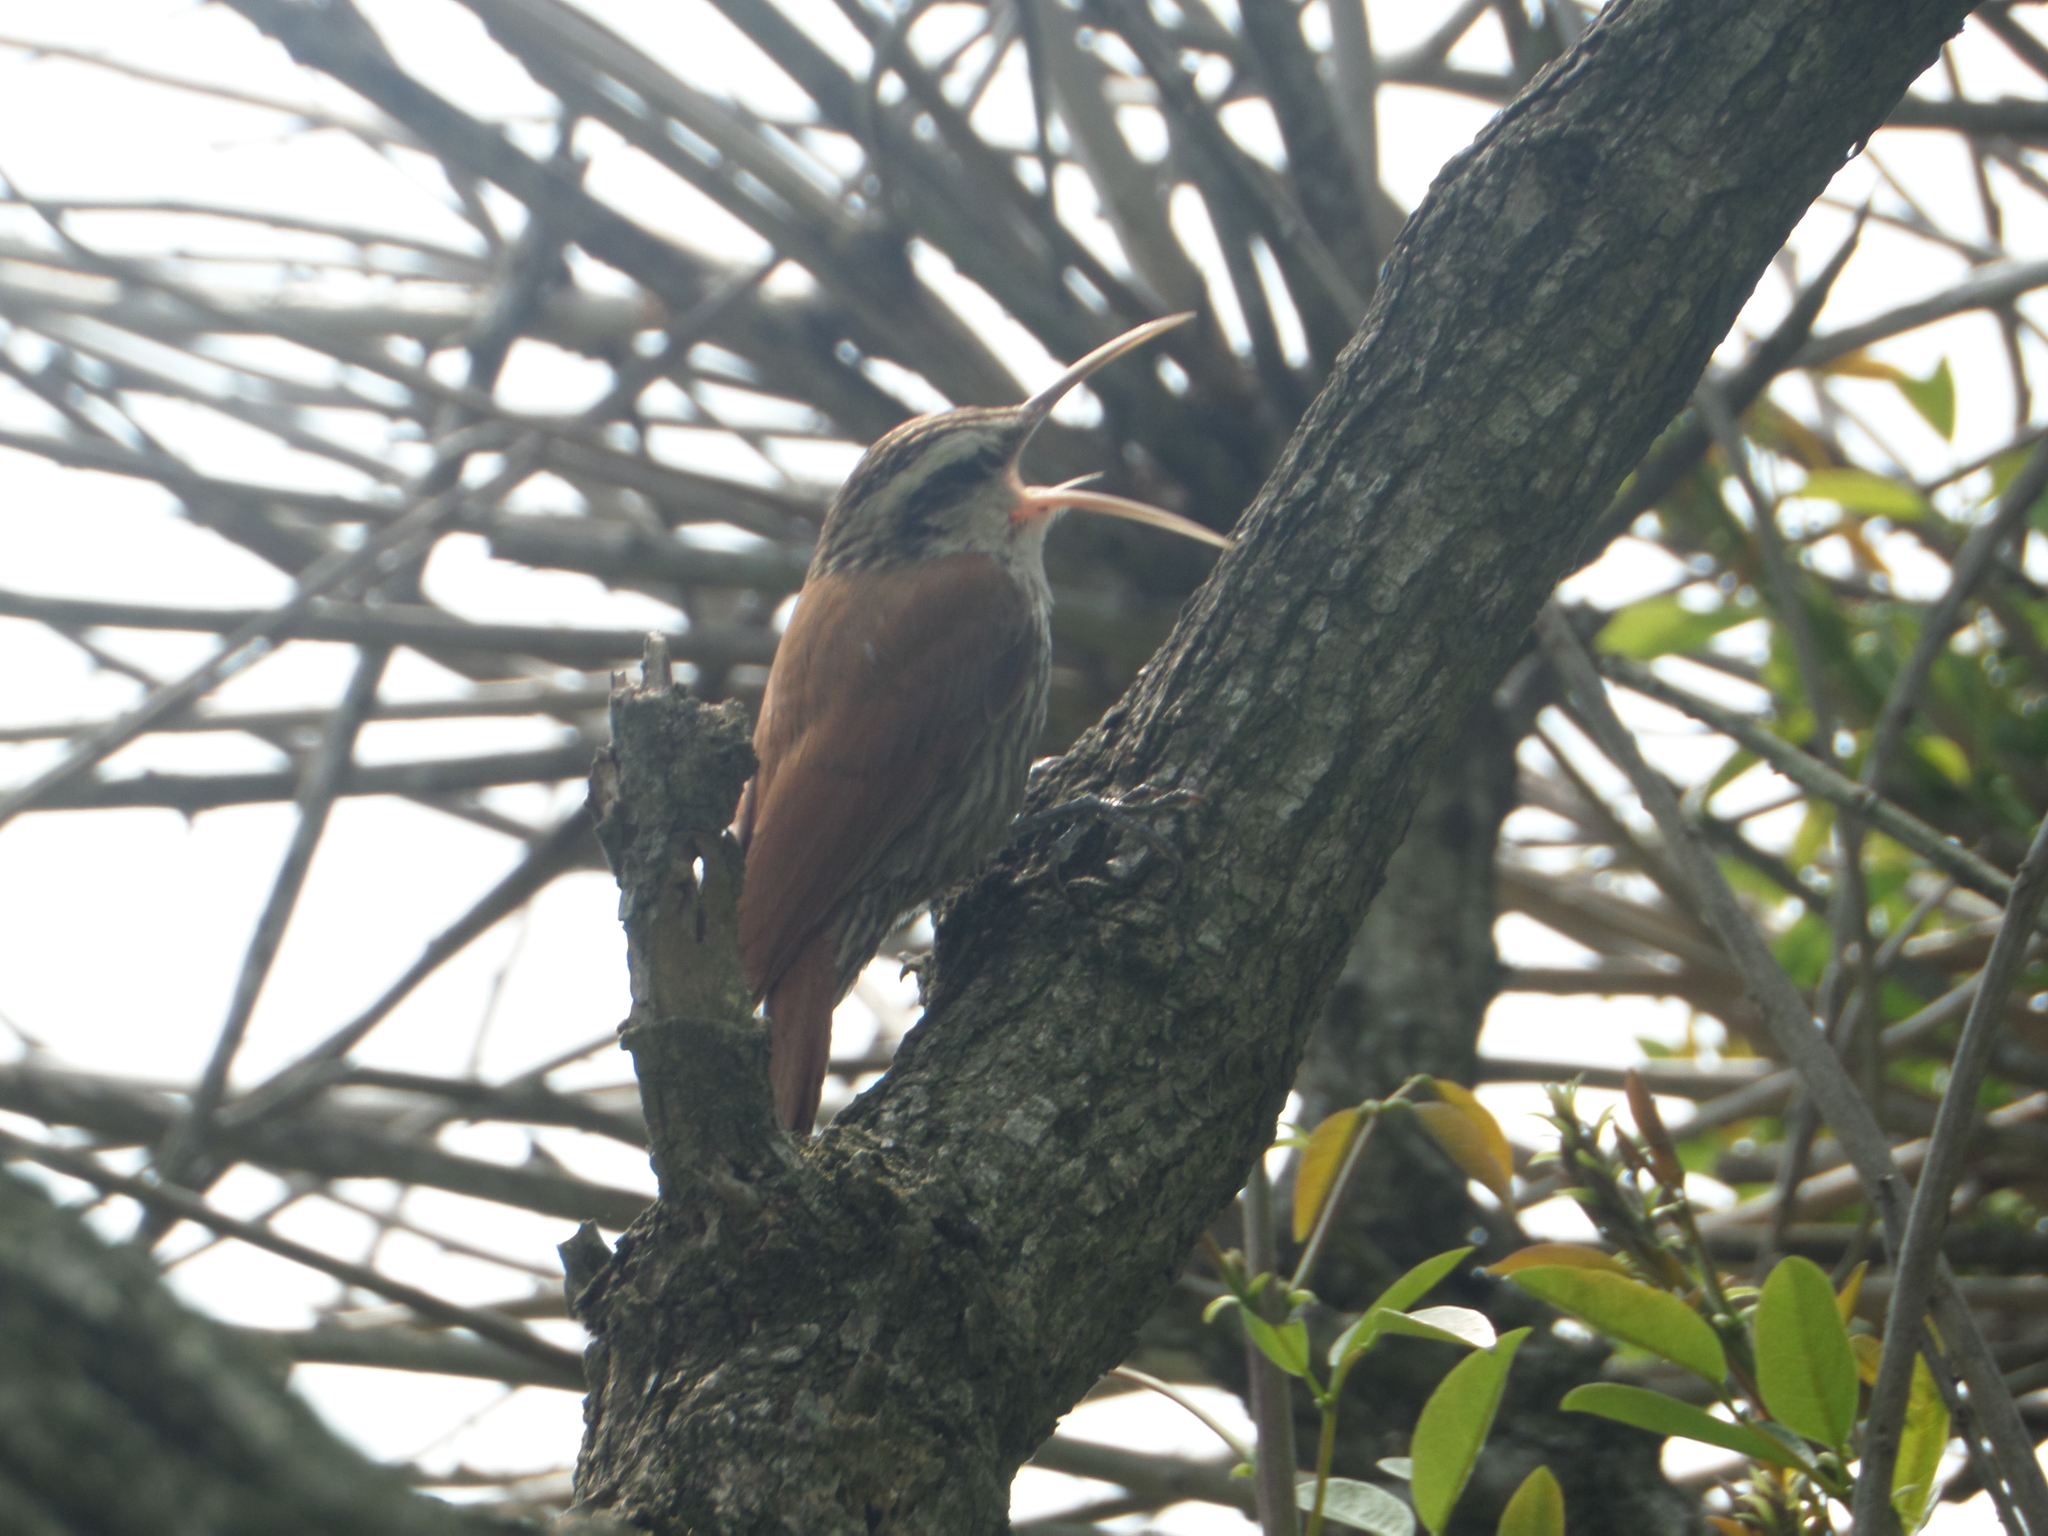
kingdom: Animalia
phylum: Chordata
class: Aves
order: Passeriformes
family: Furnariidae
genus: Lepidocolaptes
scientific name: Lepidocolaptes angustirostris
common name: Narrow-billed woodcreeper
